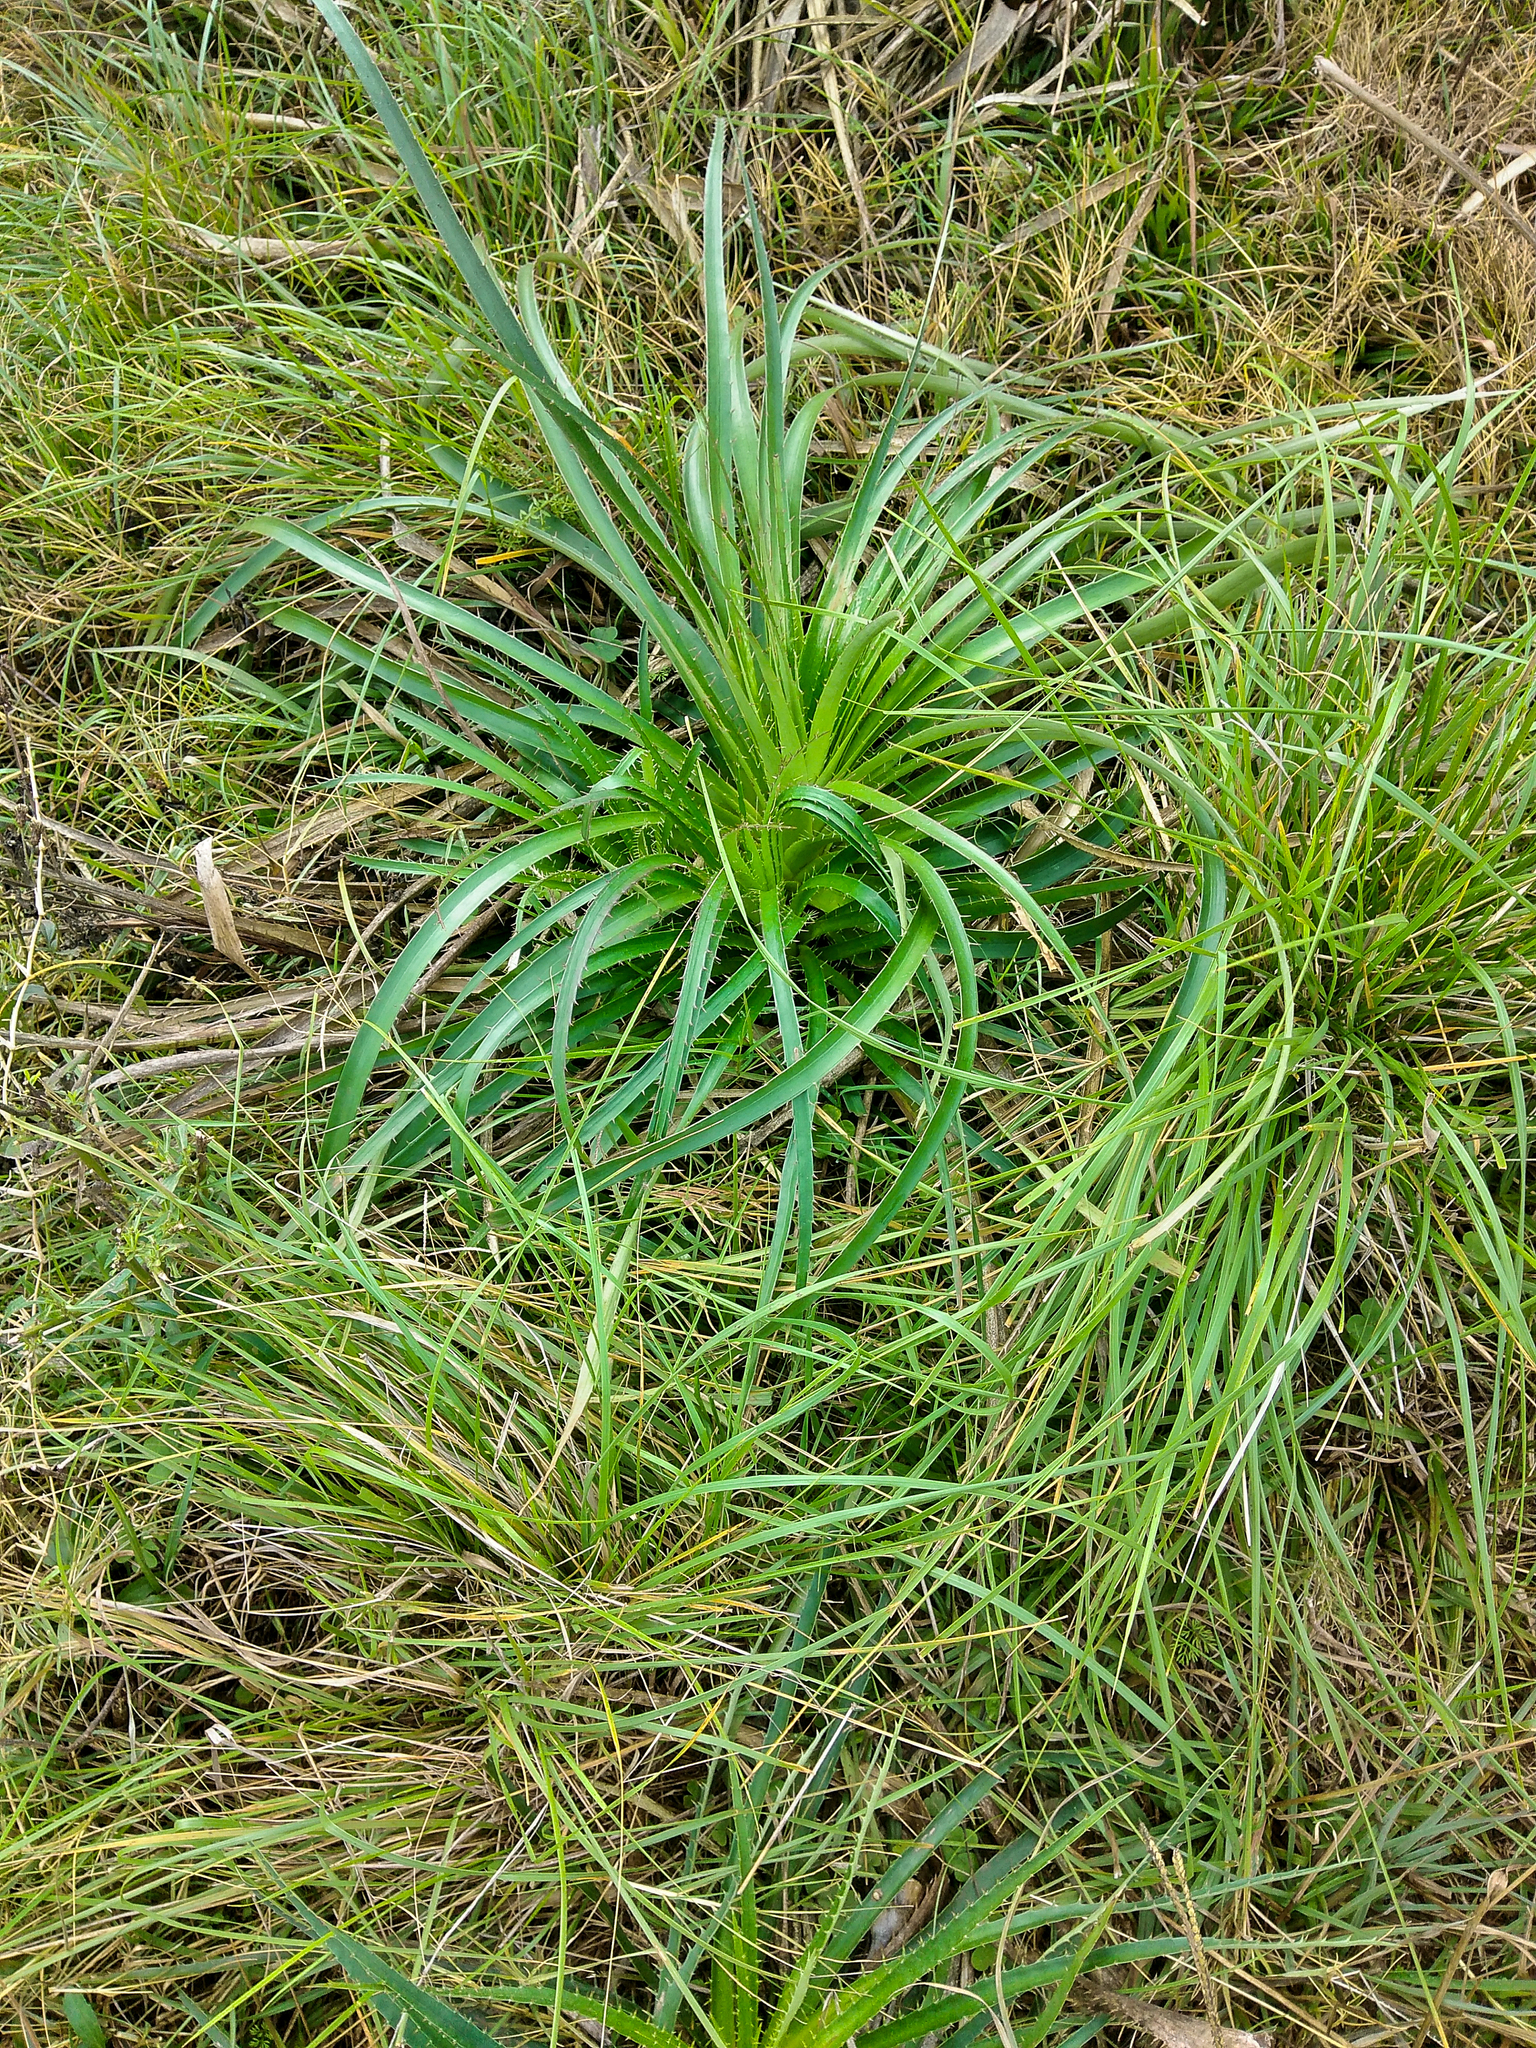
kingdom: Plantae
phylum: Tracheophyta
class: Magnoliopsida
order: Apiales
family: Apiaceae
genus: Eryngium
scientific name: Eryngium horridum
